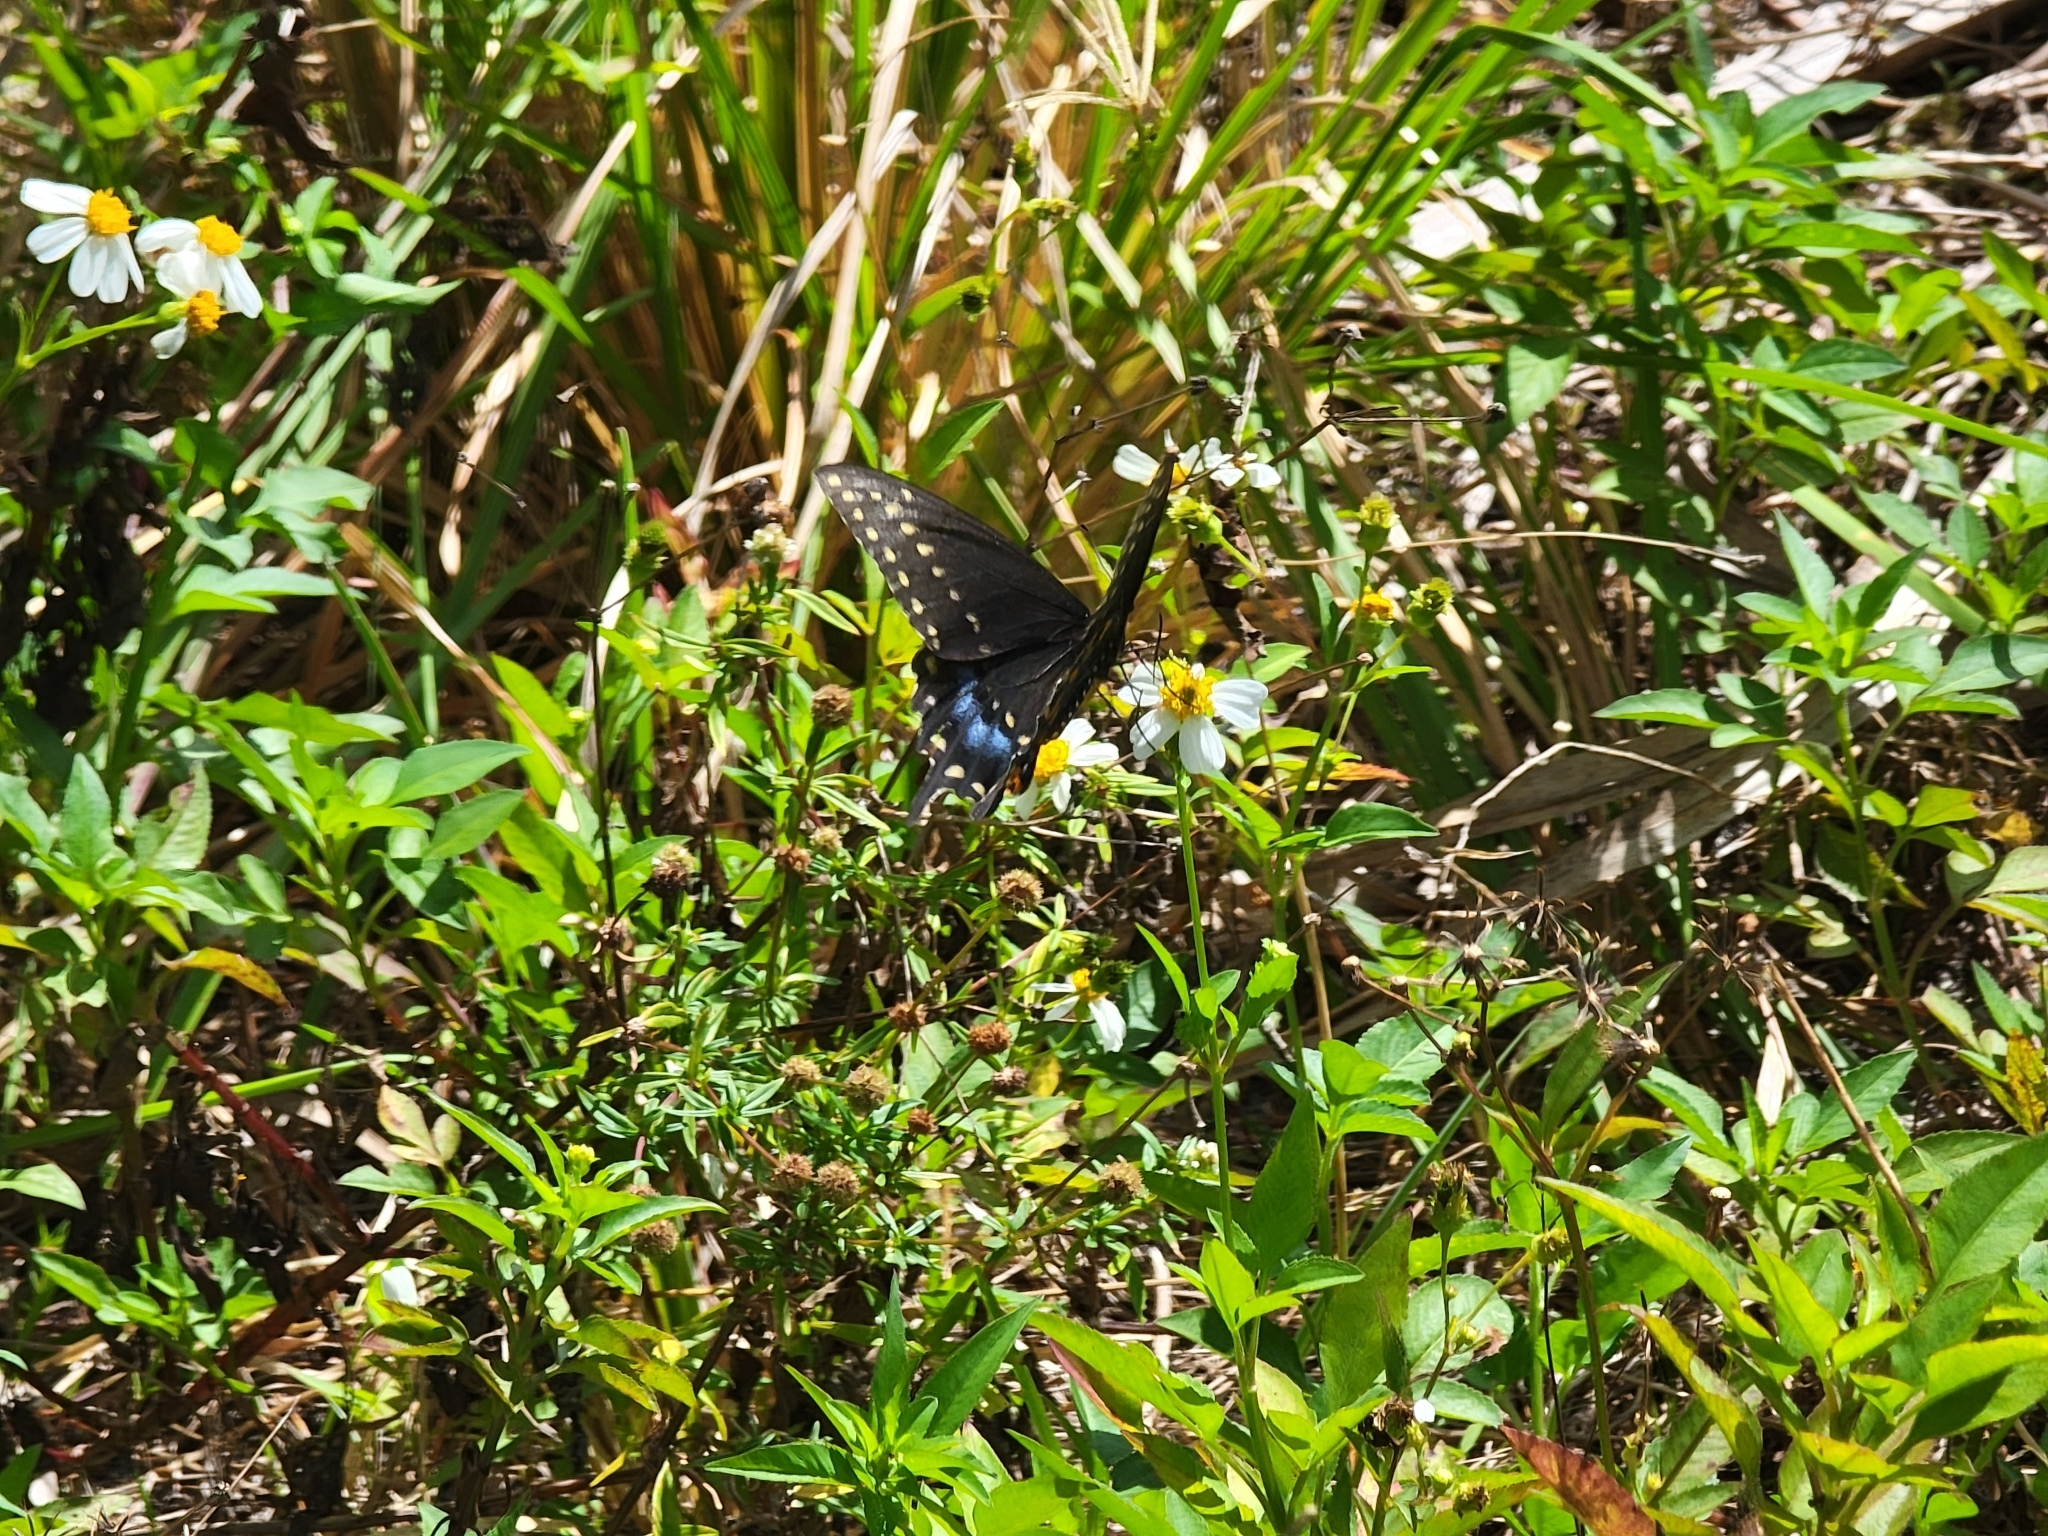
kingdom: Animalia
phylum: Arthropoda
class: Insecta
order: Lepidoptera
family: Papilionidae
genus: Papilio
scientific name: Papilio polyxenes
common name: Black swallowtail
